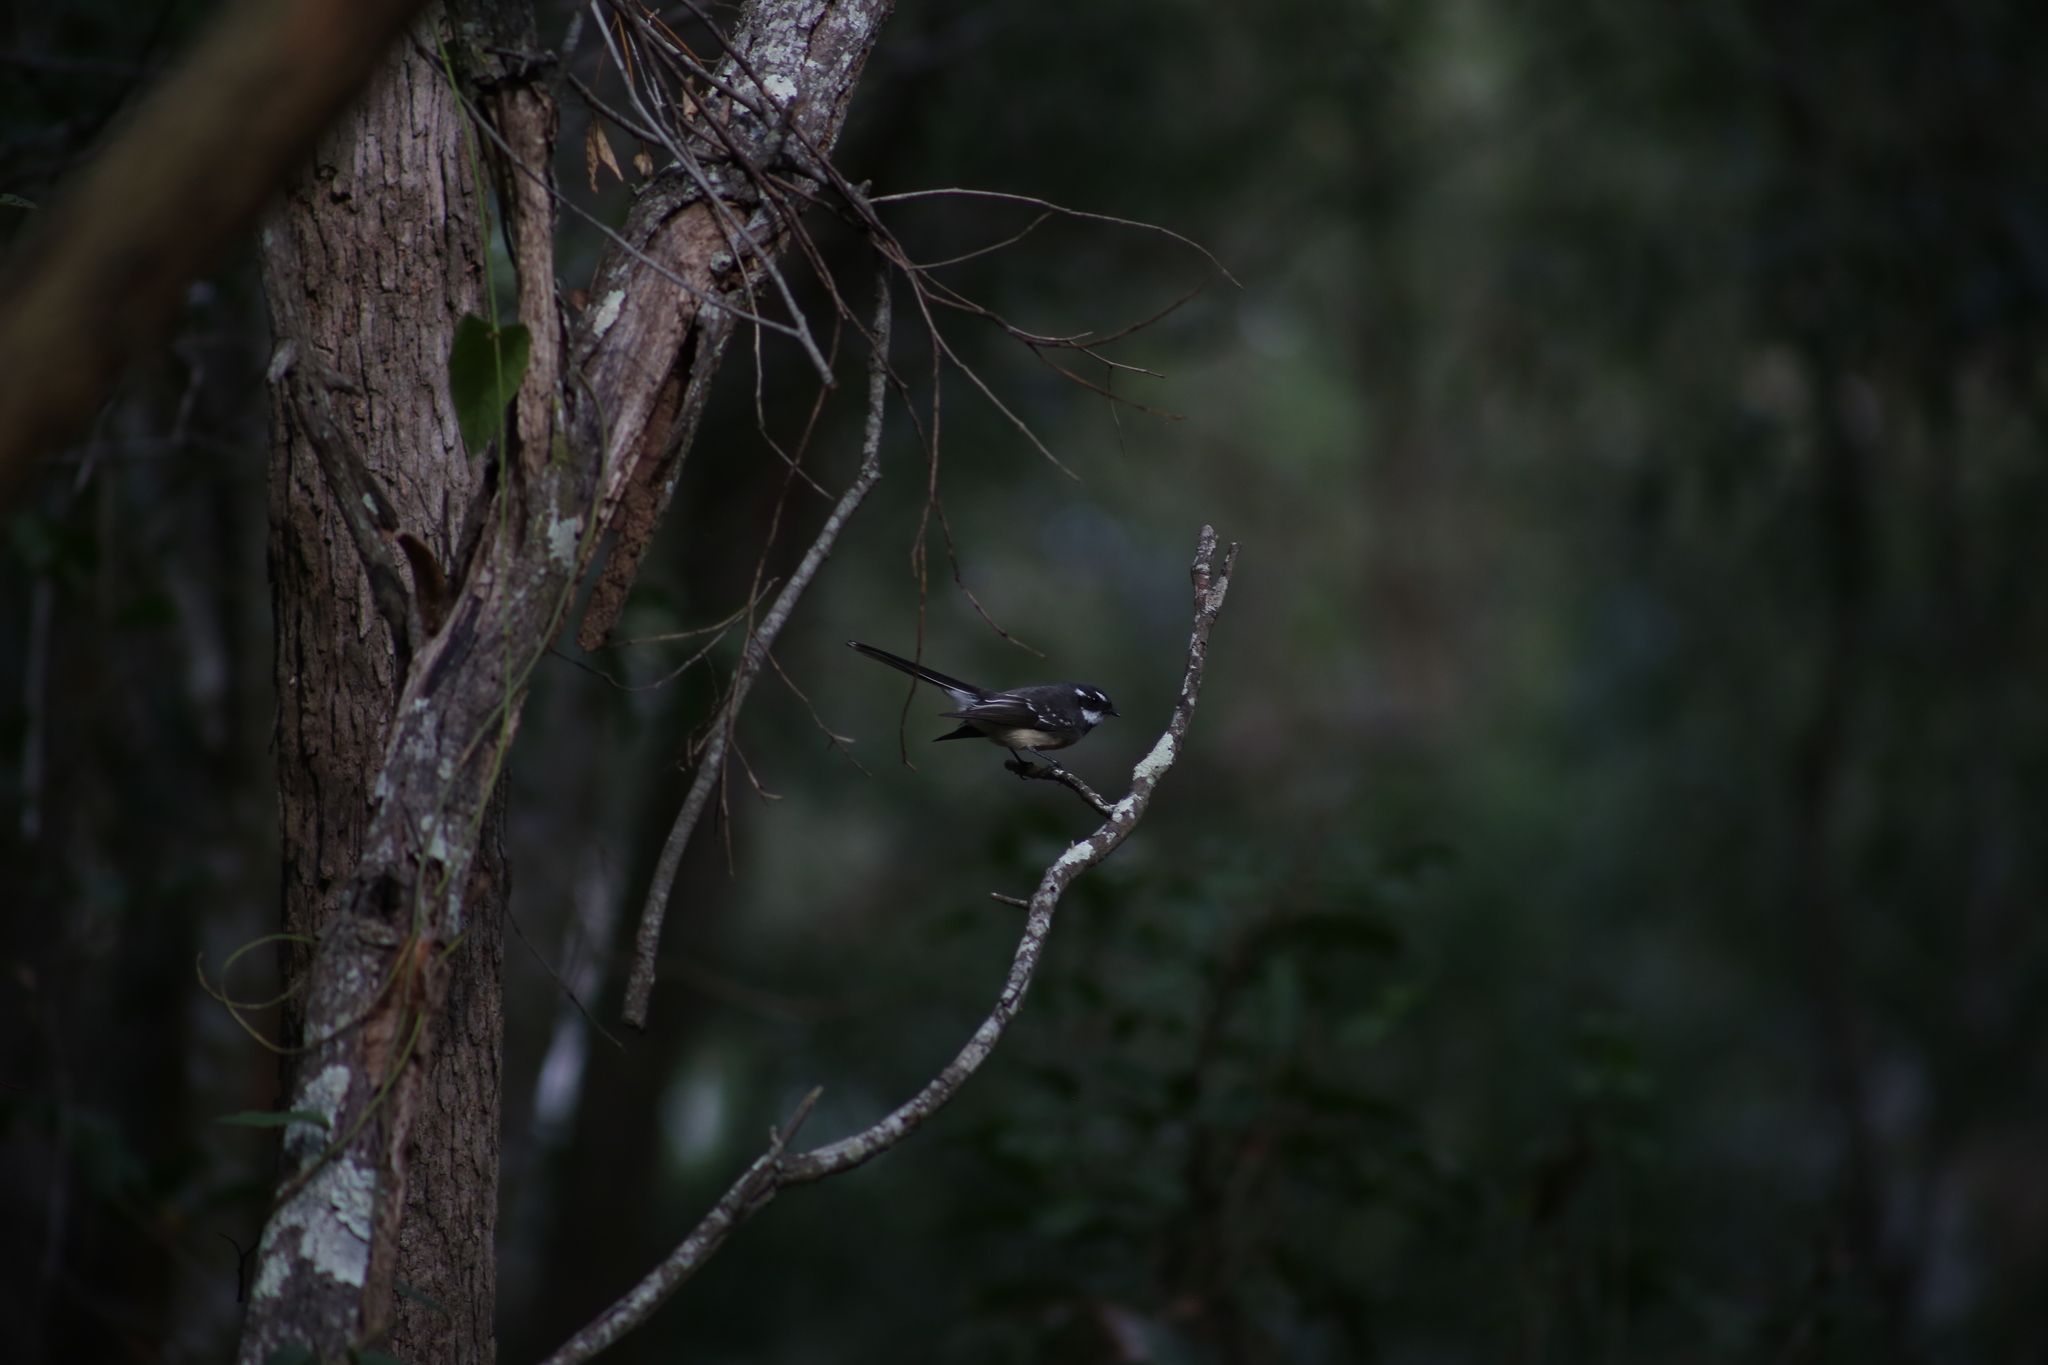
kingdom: Animalia
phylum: Chordata
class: Aves
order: Passeriformes
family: Rhipiduridae
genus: Rhipidura
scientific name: Rhipidura albiscapa
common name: Grey fantail
